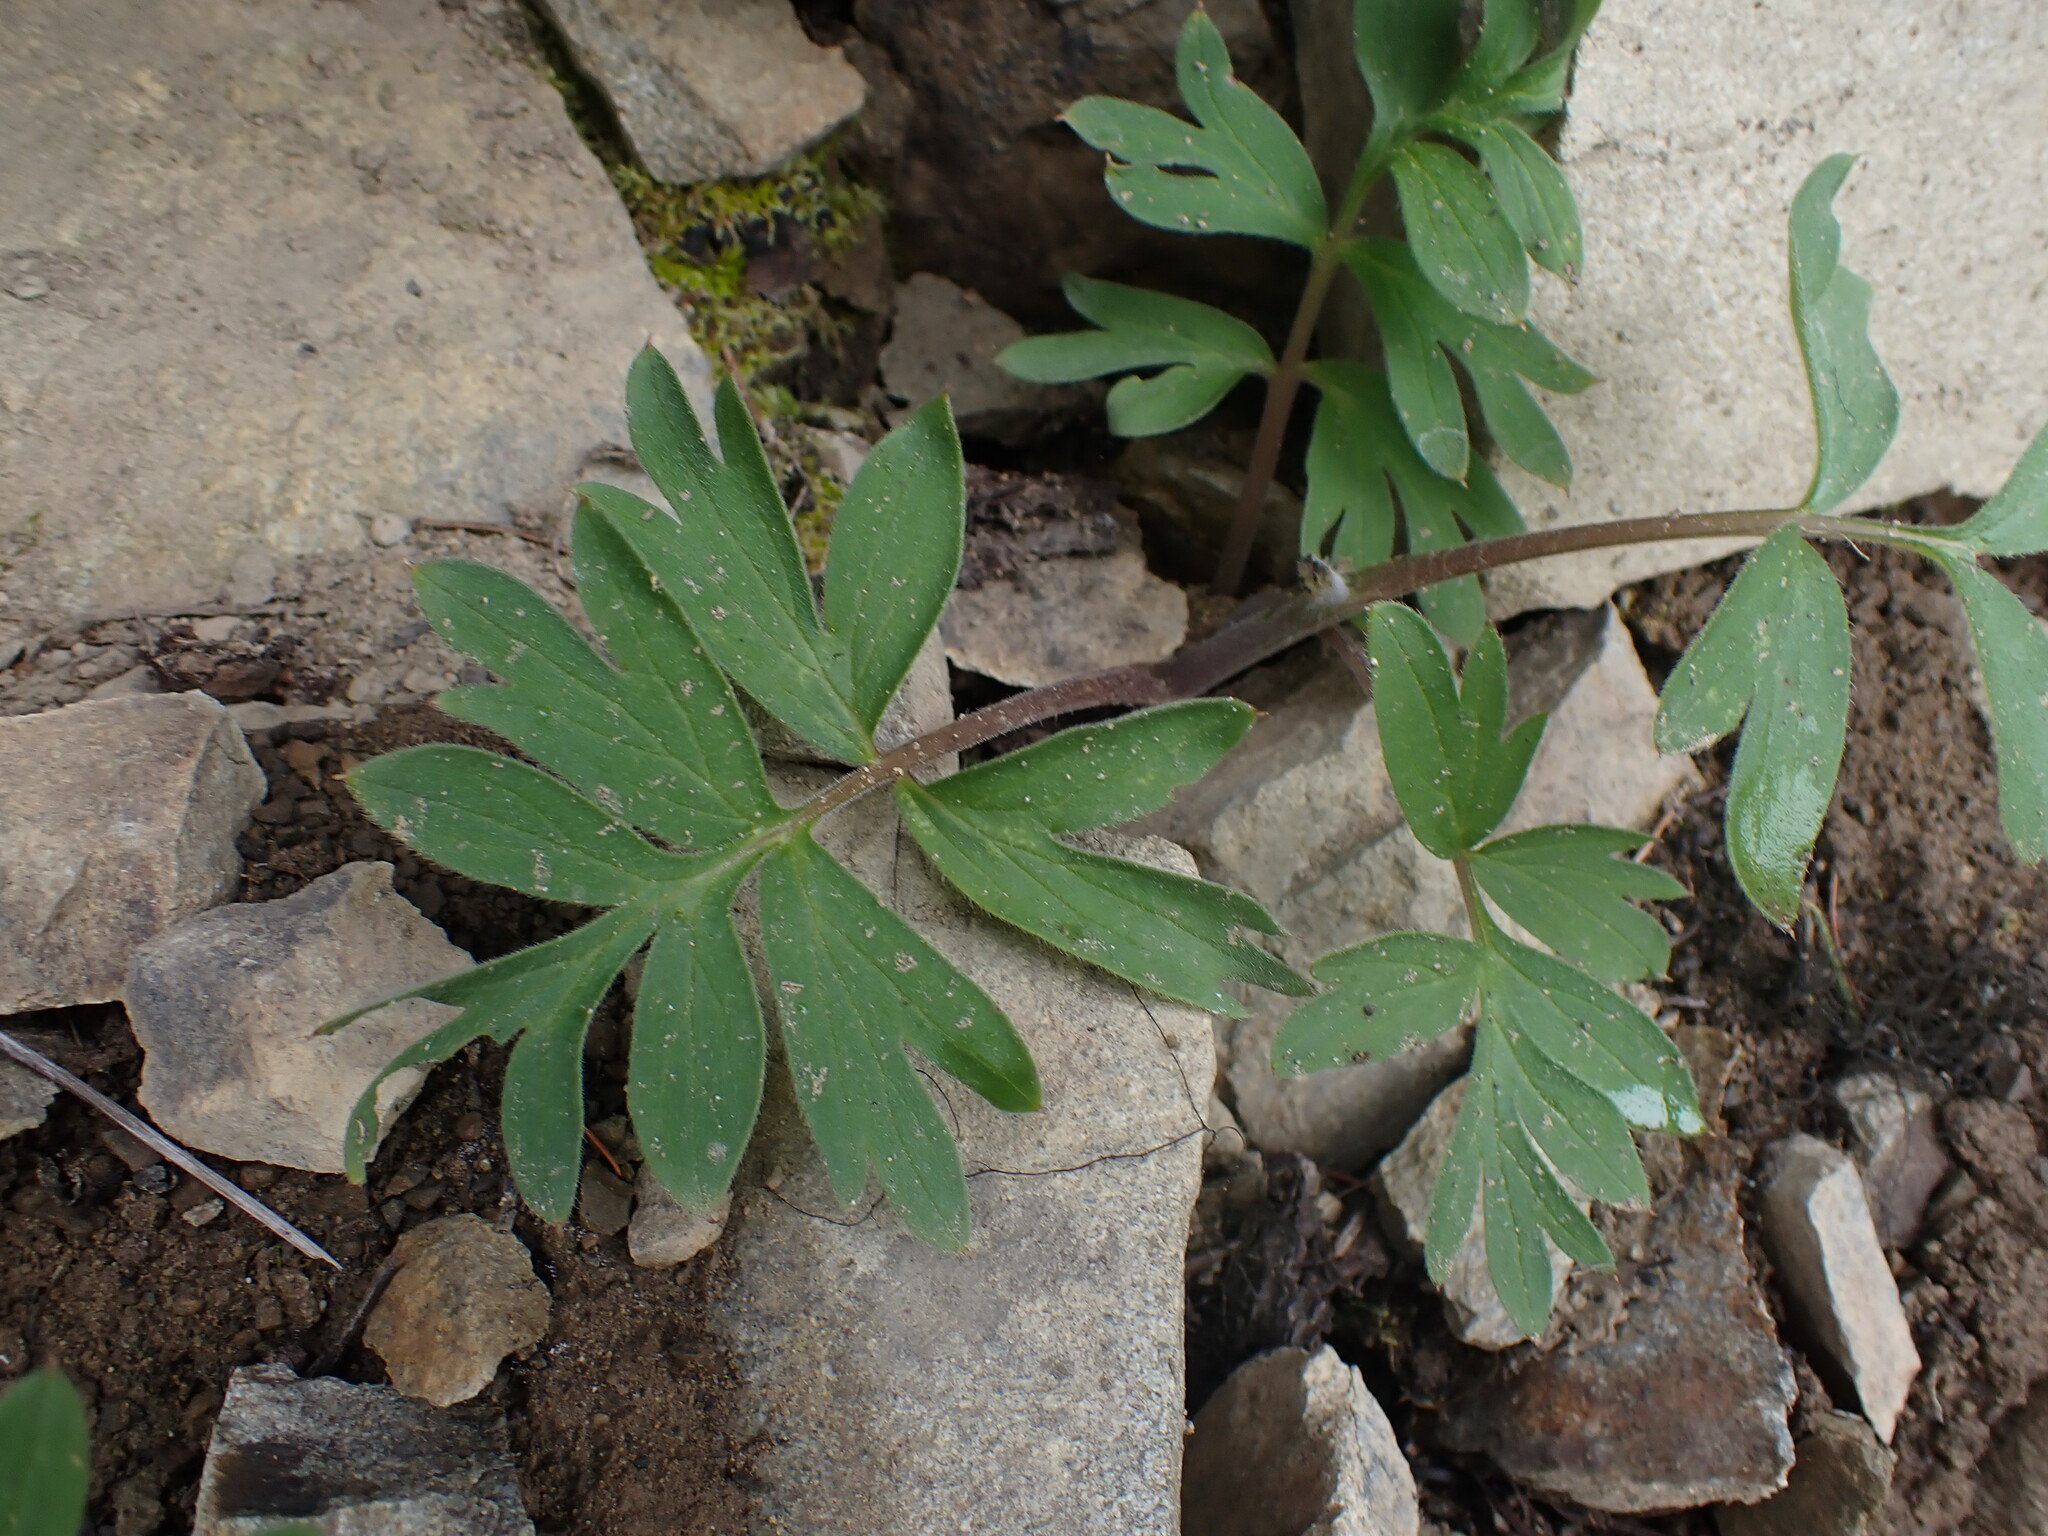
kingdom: Plantae
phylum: Tracheophyta
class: Magnoliopsida
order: Boraginales
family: Hydrophyllaceae
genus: Hydrophyllum
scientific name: Hydrophyllum capitatum
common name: Woollen-breeches
